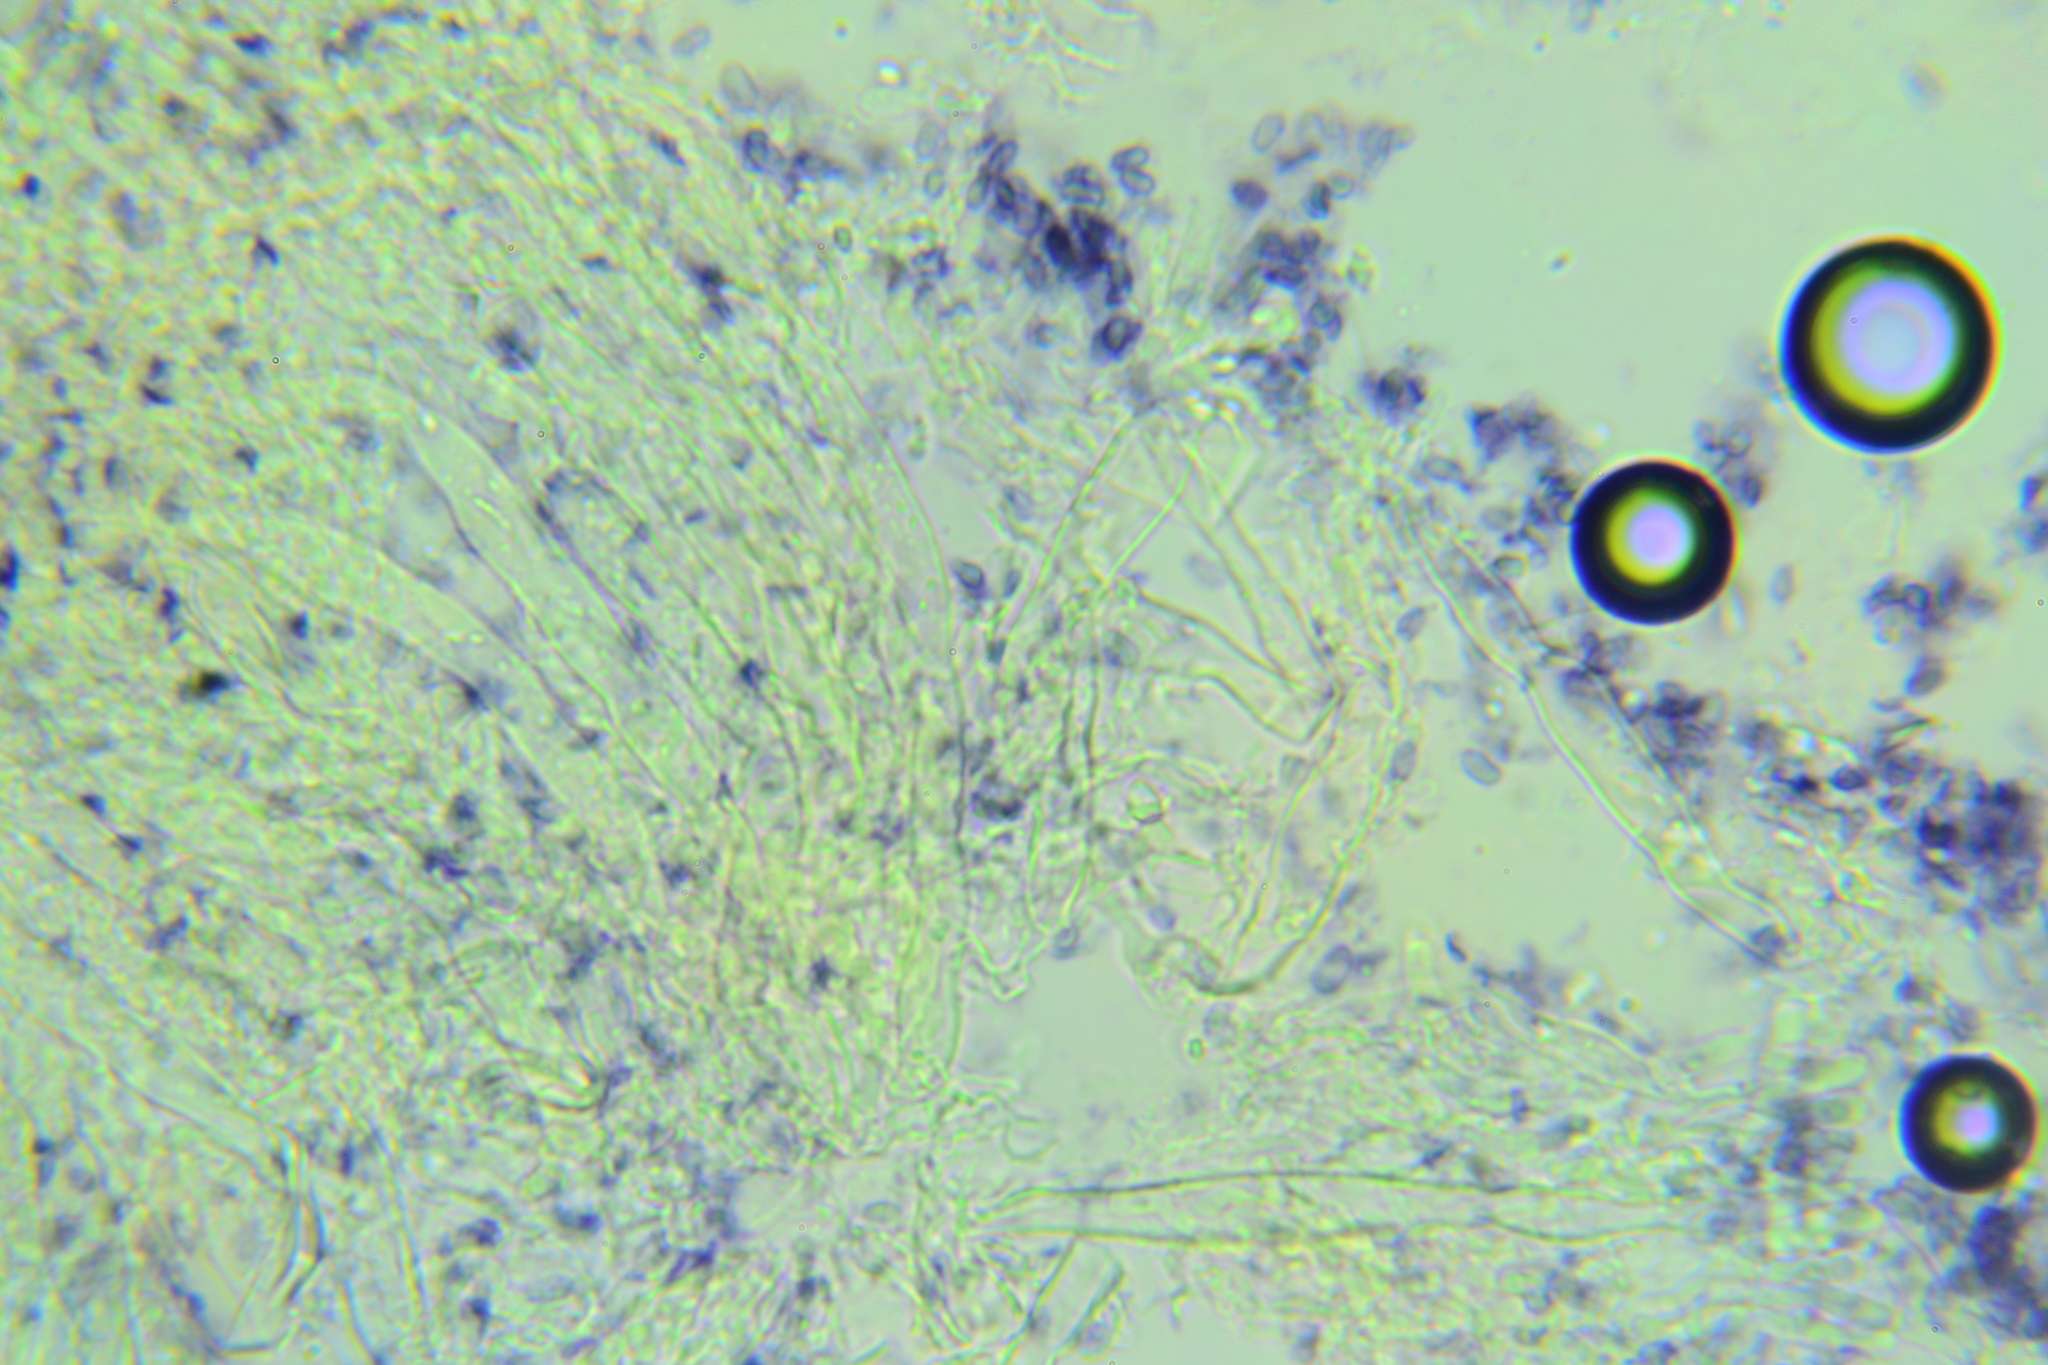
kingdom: Fungi
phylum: Basidiomycota
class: Agaricomycetes
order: Russulales
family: Stereaceae
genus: Gloeocystidiellum
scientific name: Gloeocystidiellum porosum
